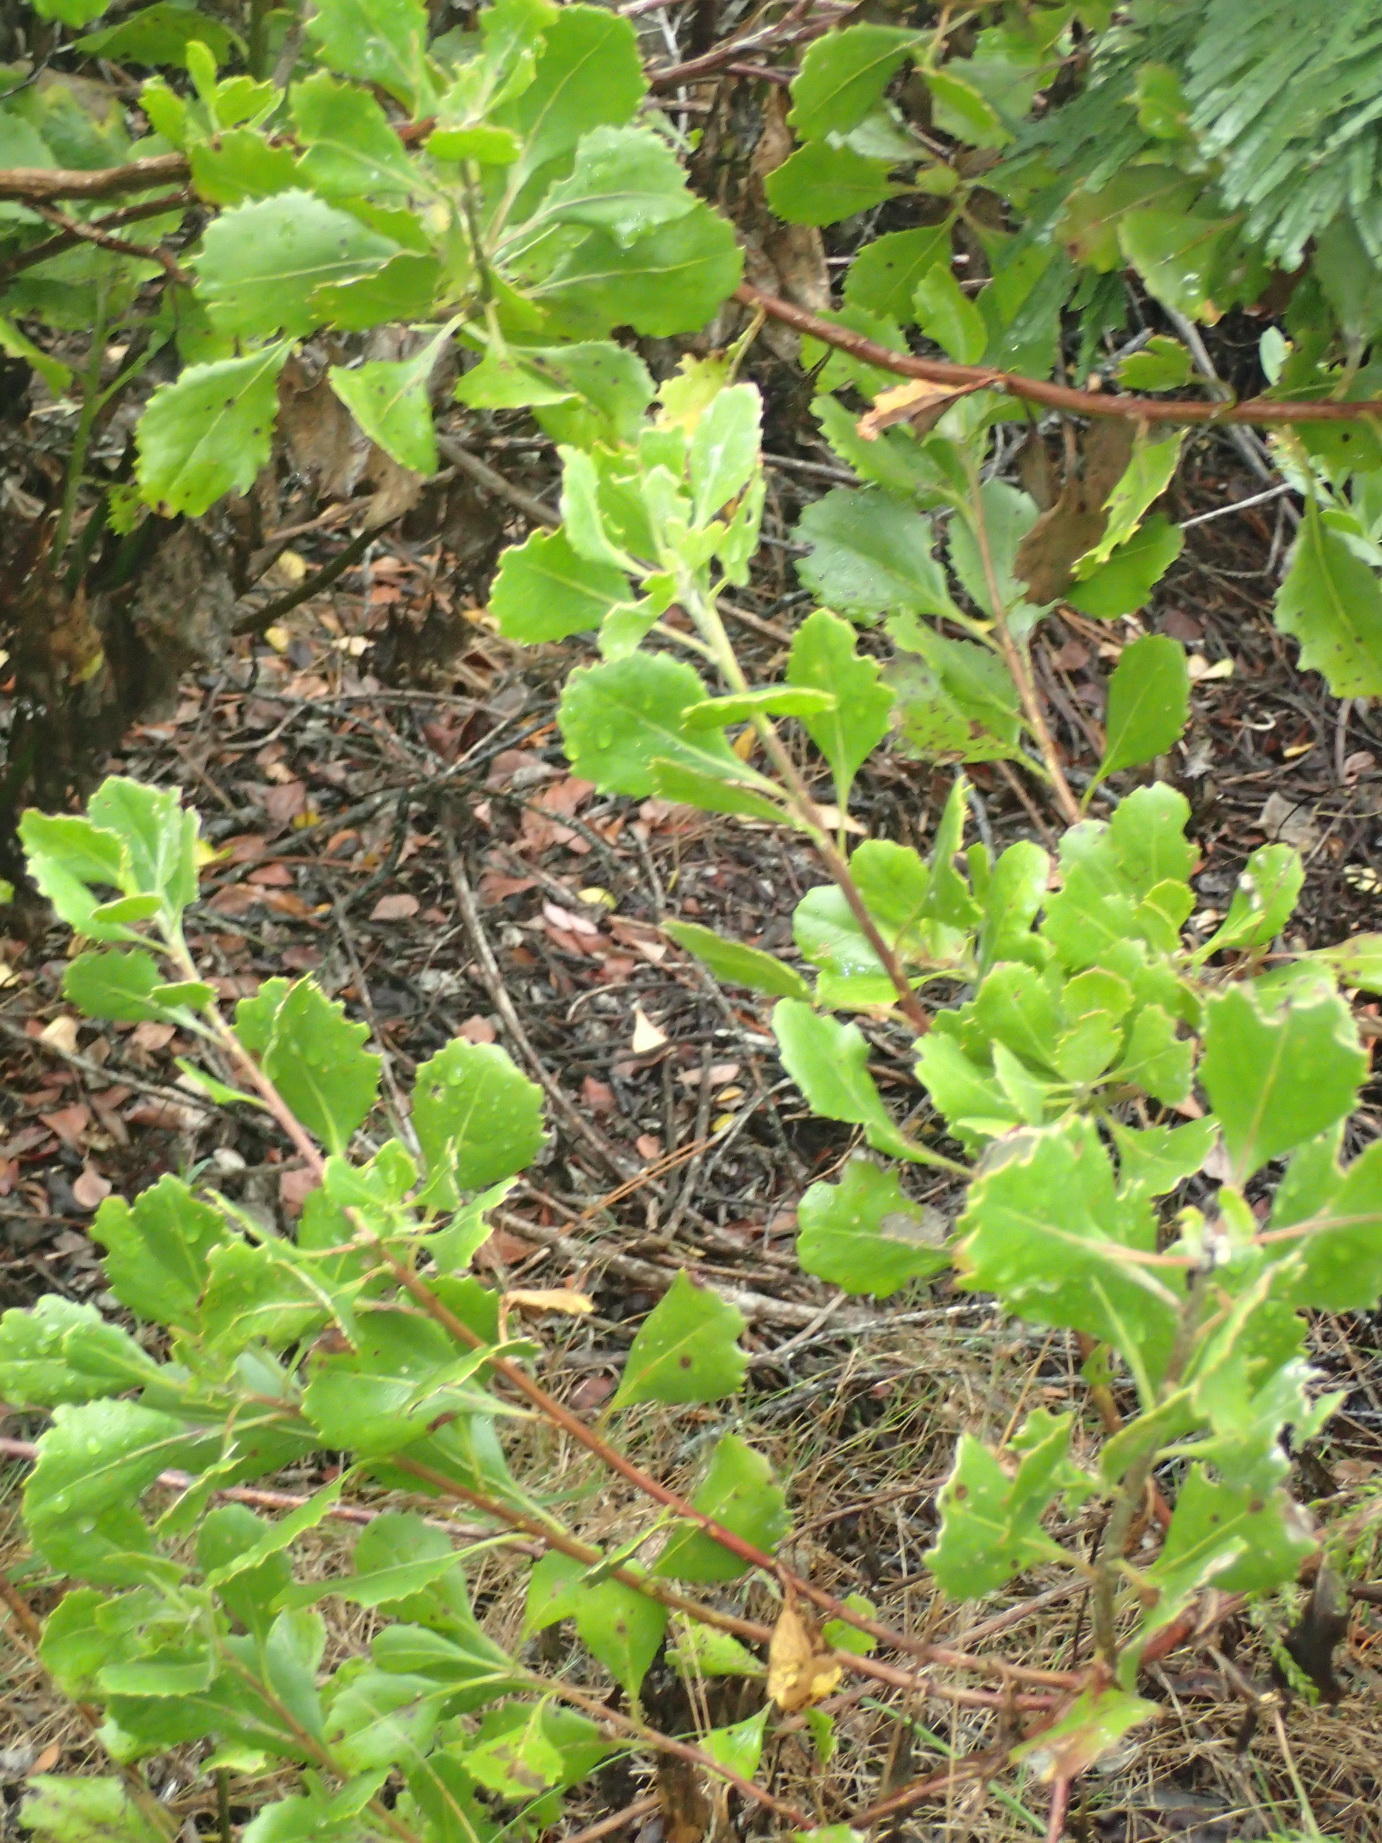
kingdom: Plantae
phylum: Tracheophyta
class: Magnoliopsida
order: Asterales
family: Asteraceae
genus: Osteospermum
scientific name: Osteospermum moniliferum
